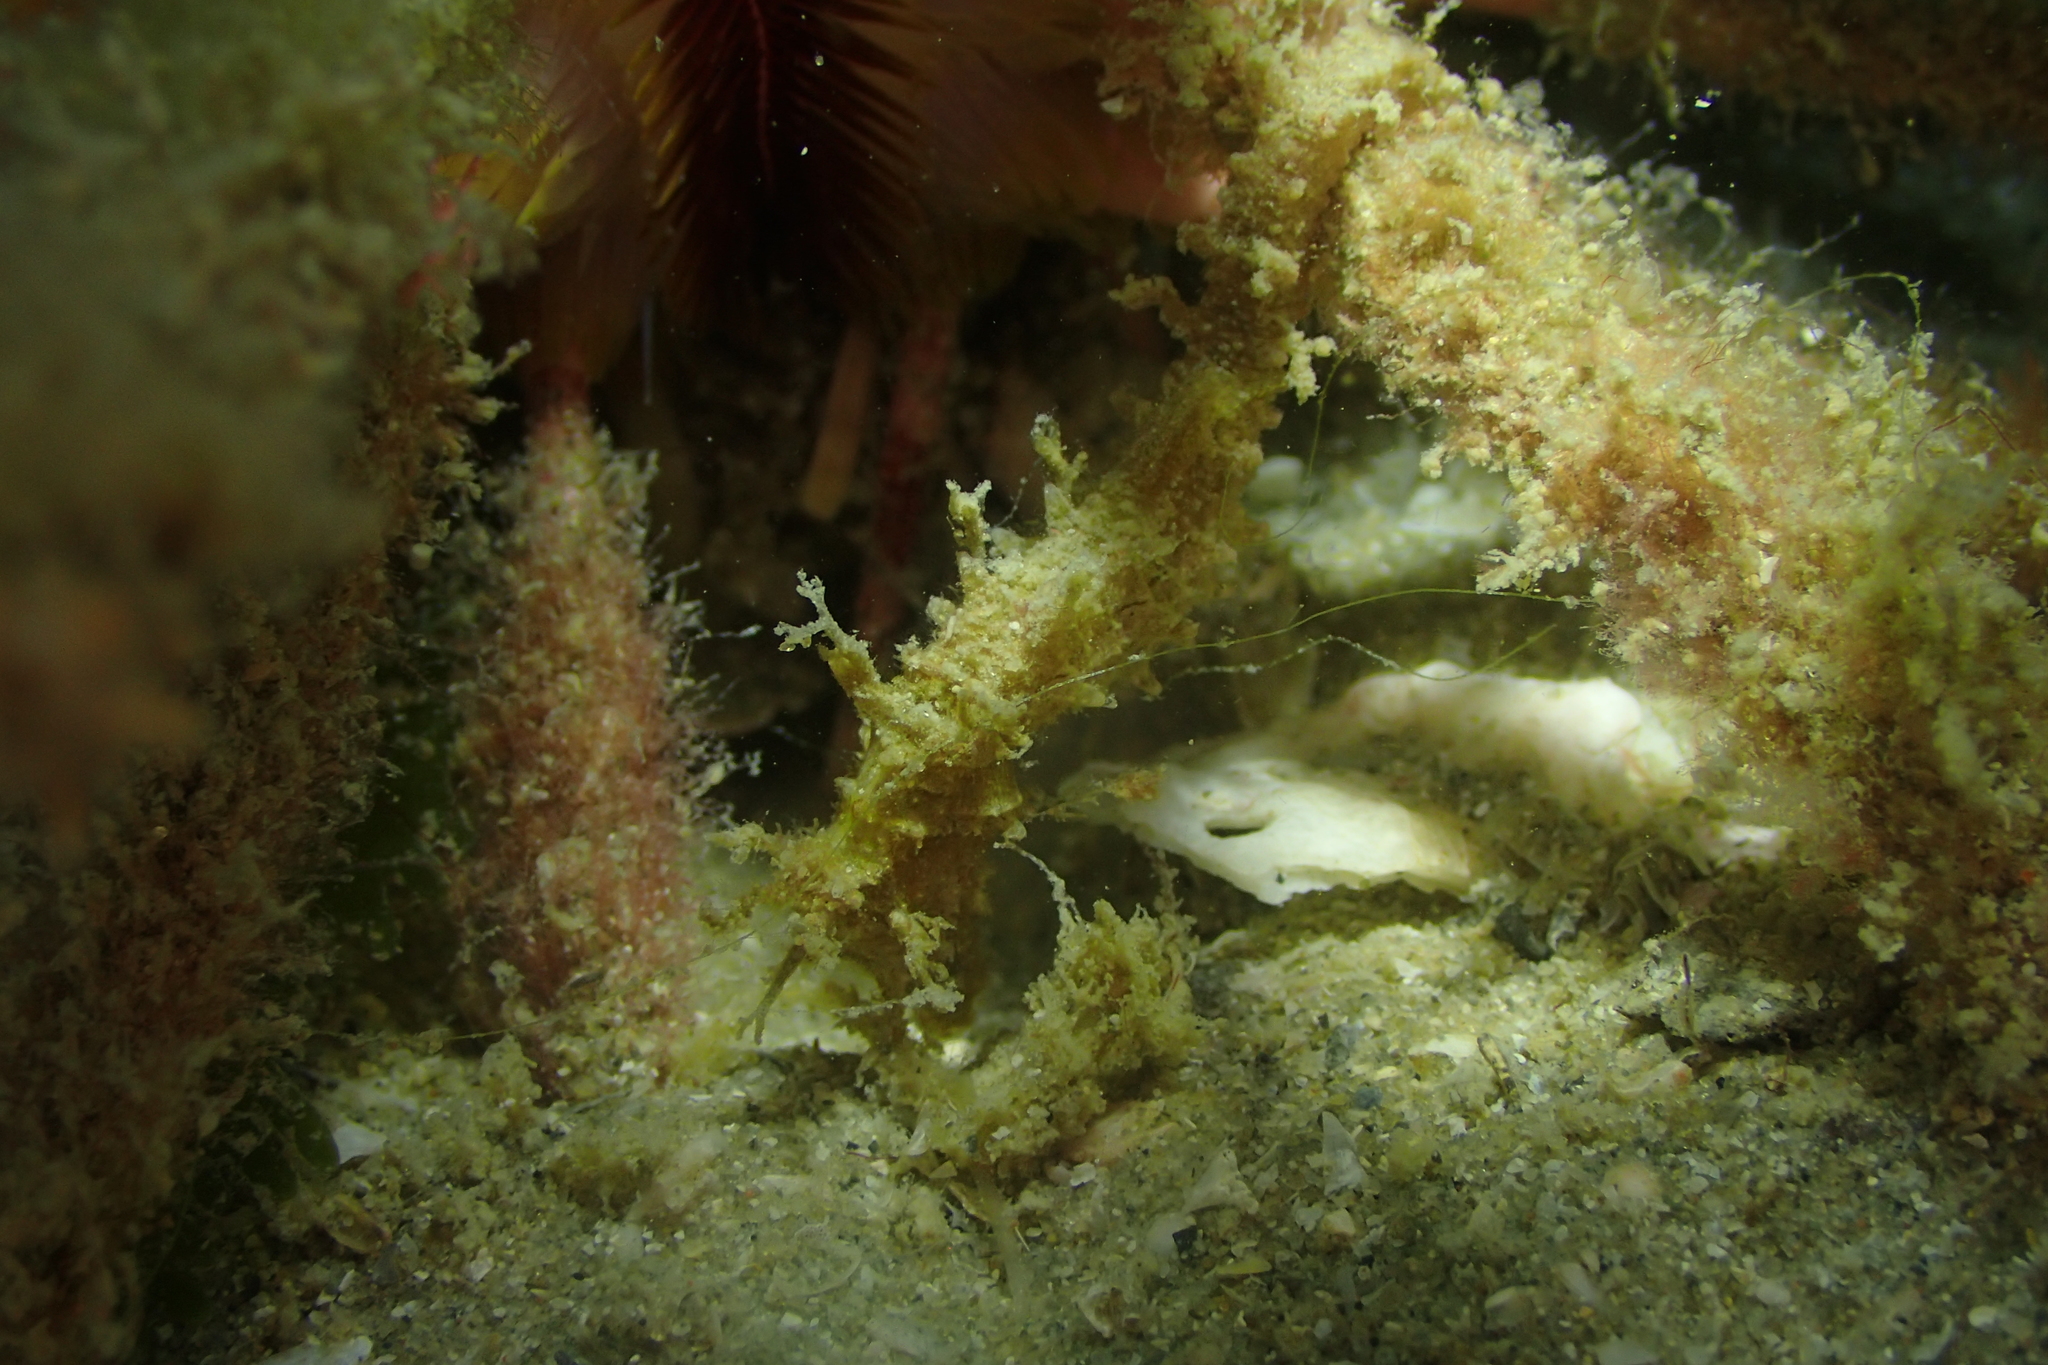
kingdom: Animalia
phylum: Chordata
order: Syngnathiformes
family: Syngnathidae
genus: Hippocampus
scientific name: Hippocampus spinosissimus
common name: Hedgehog seahorse
